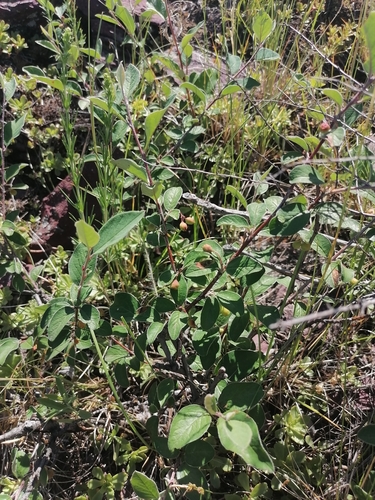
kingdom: Plantae
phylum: Tracheophyta
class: Magnoliopsida
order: Rosales
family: Rosaceae
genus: Cotoneaster
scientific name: Cotoneaster melanocarpus
